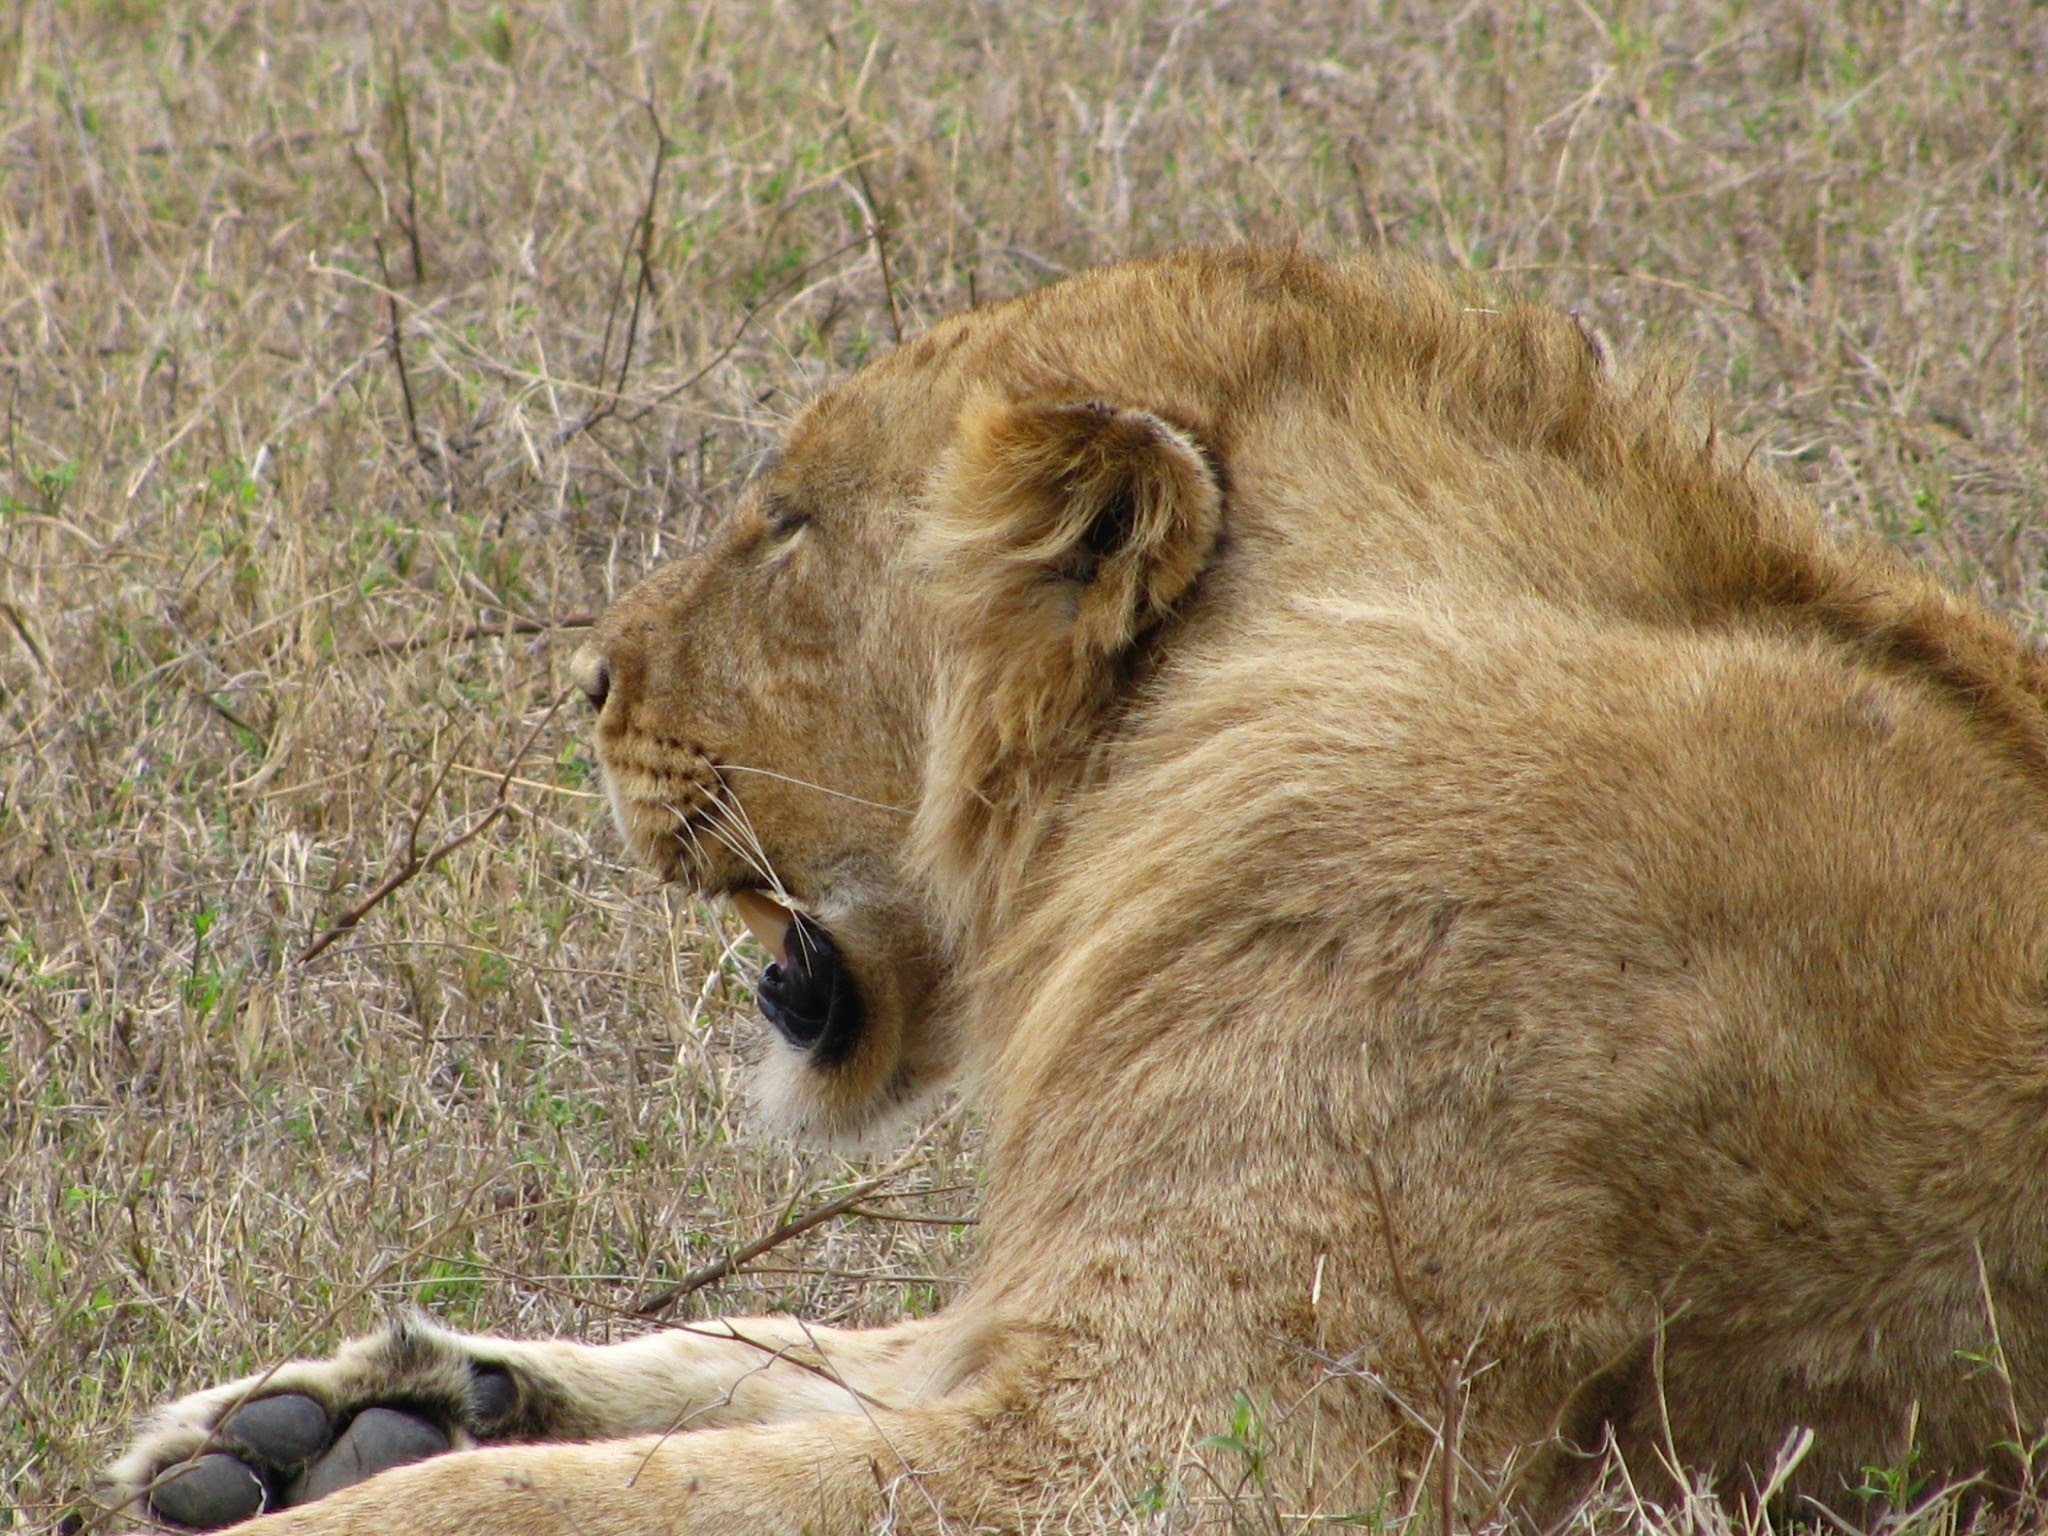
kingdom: Animalia
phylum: Chordata
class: Mammalia
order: Carnivora
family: Felidae
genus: Panthera
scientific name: Panthera leo
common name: Lion
